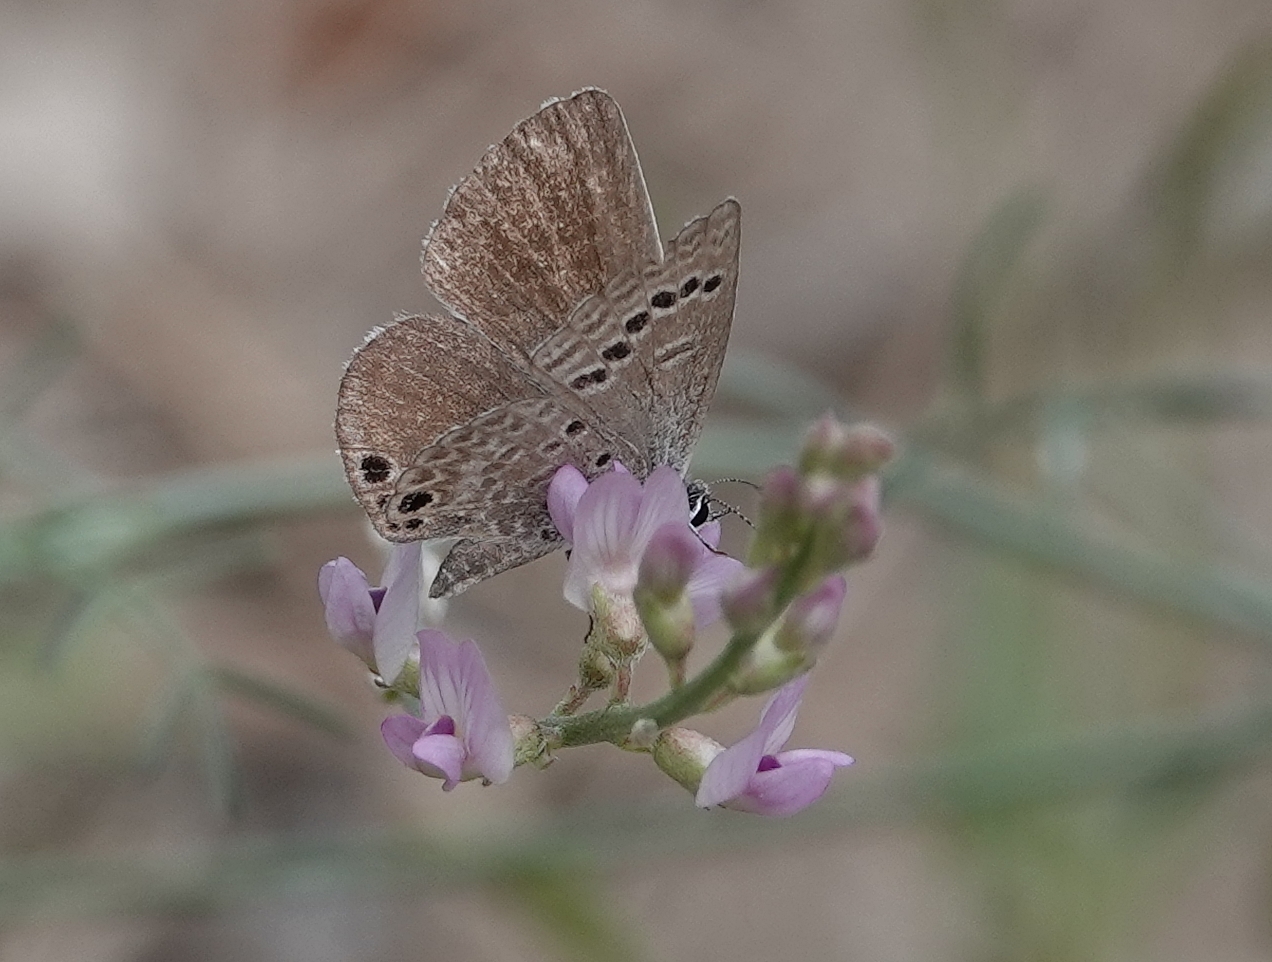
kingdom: Animalia
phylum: Arthropoda
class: Insecta
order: Lepidoptera
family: Lycaenidae
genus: Echinargus
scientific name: Echinargus isola
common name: Reakirt's blue
